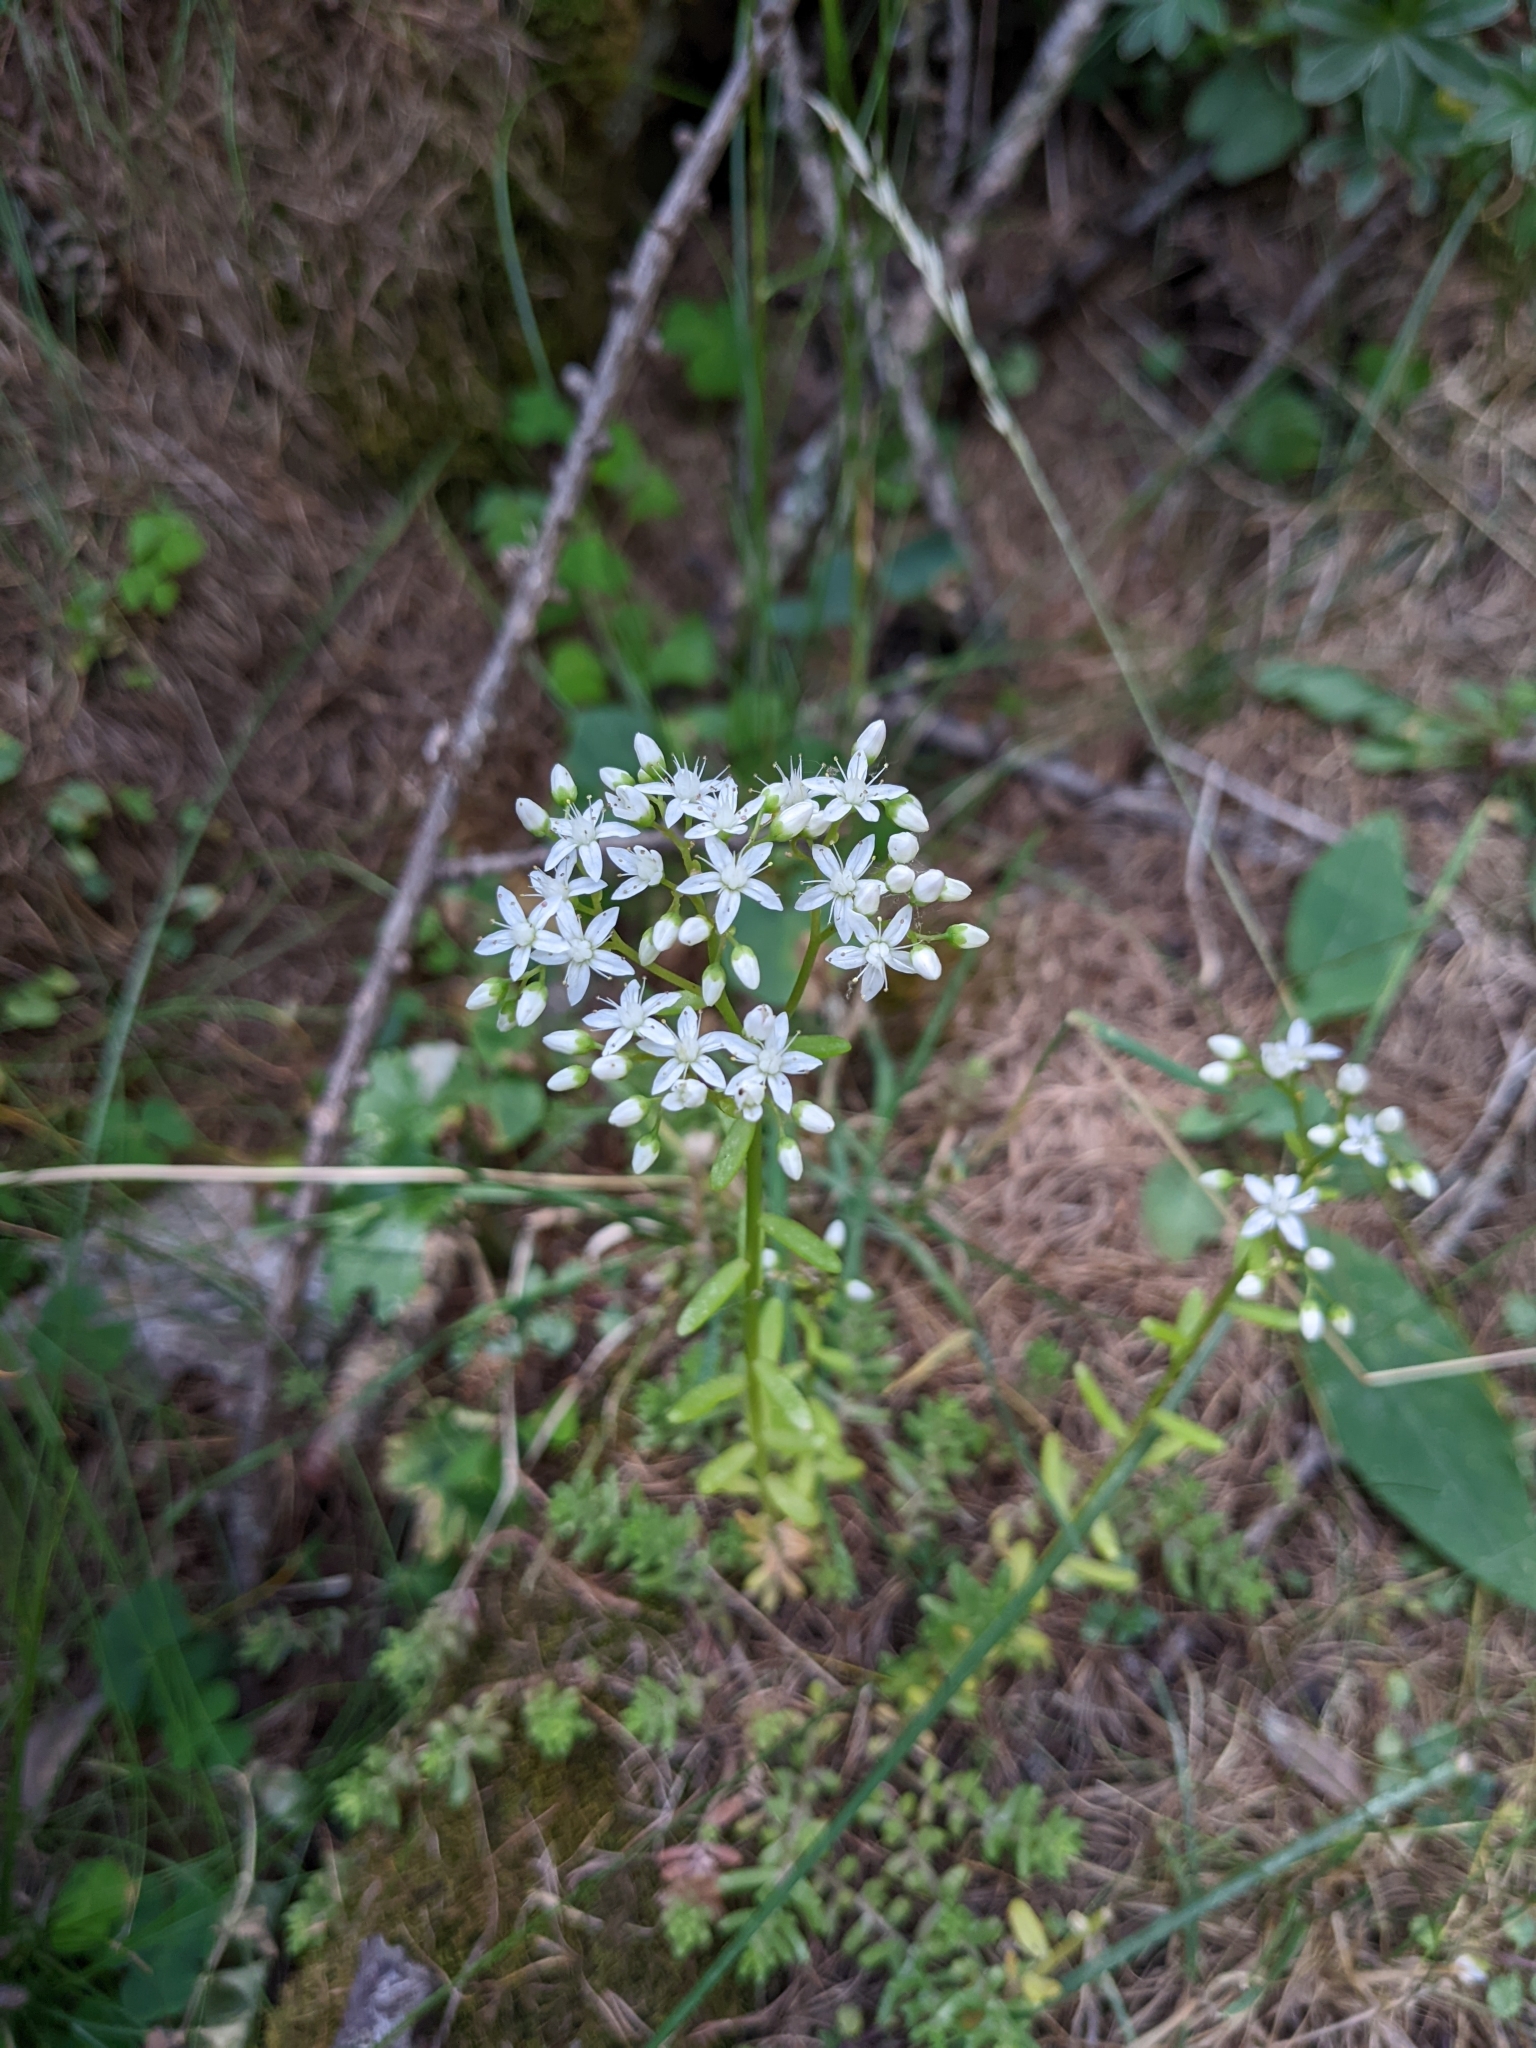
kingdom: Plantae
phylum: Tracheophyta
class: Magnoliopsida
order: Saxifragales
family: Crassulaceae
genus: Sedum
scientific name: Sedum album
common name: White stonecrop
